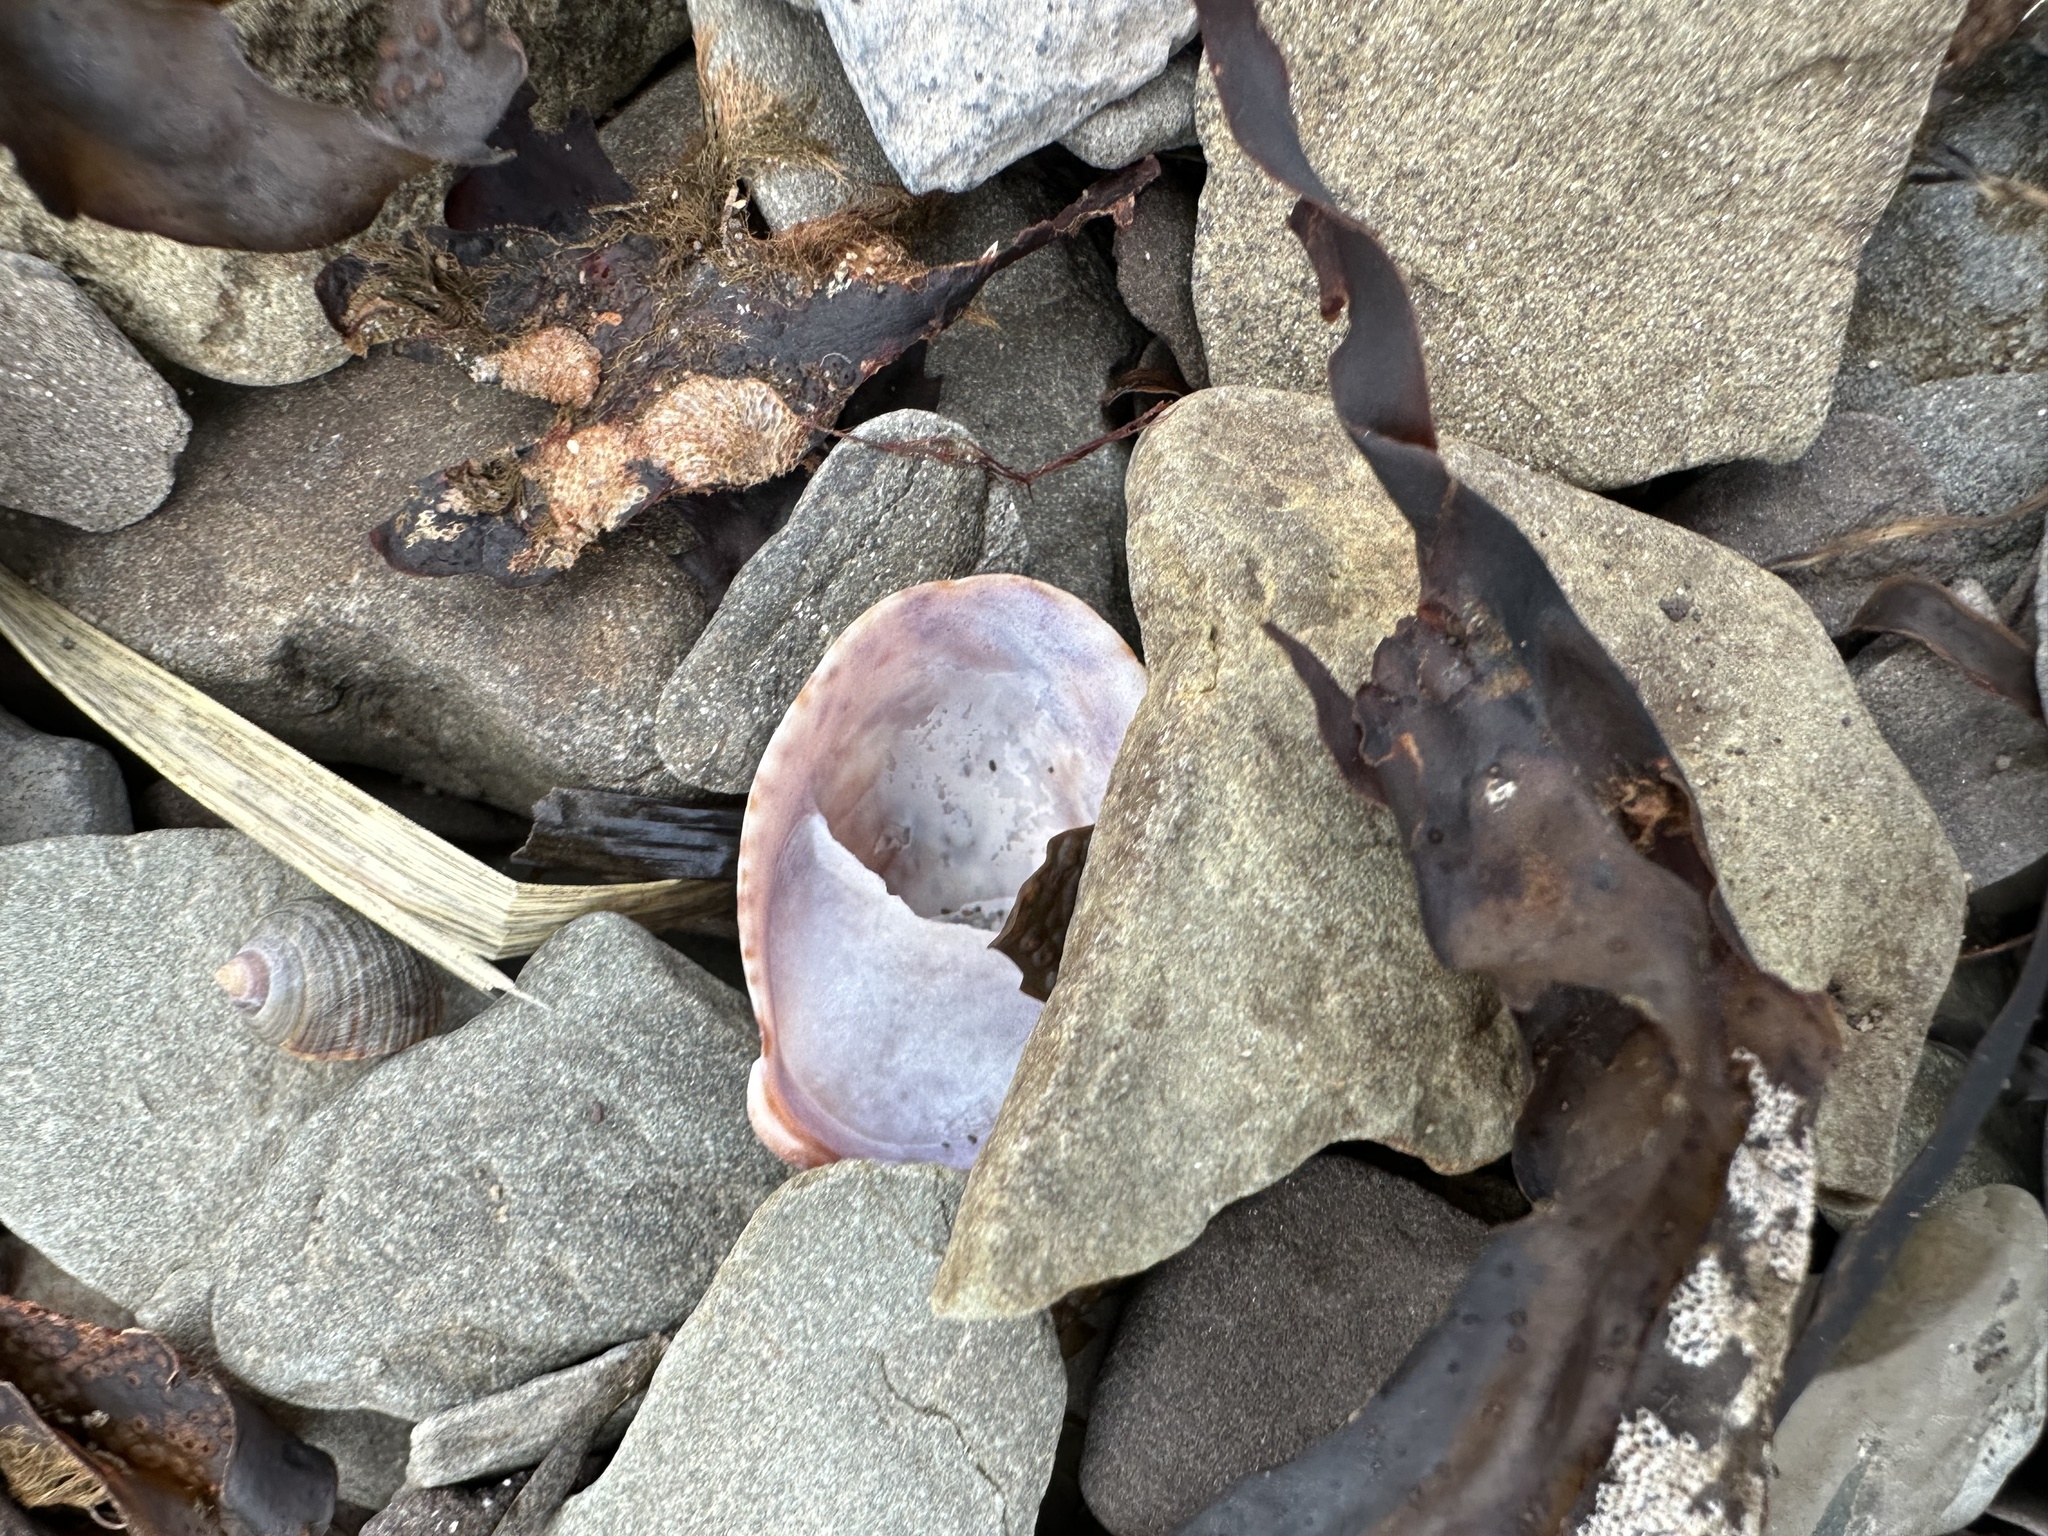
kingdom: Animalia
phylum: Mollusca
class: Gastropoda
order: Littorinimorpha
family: Calyptraeidae
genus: Crepidula
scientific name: Crepidula fornicata
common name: Slipper limpet
